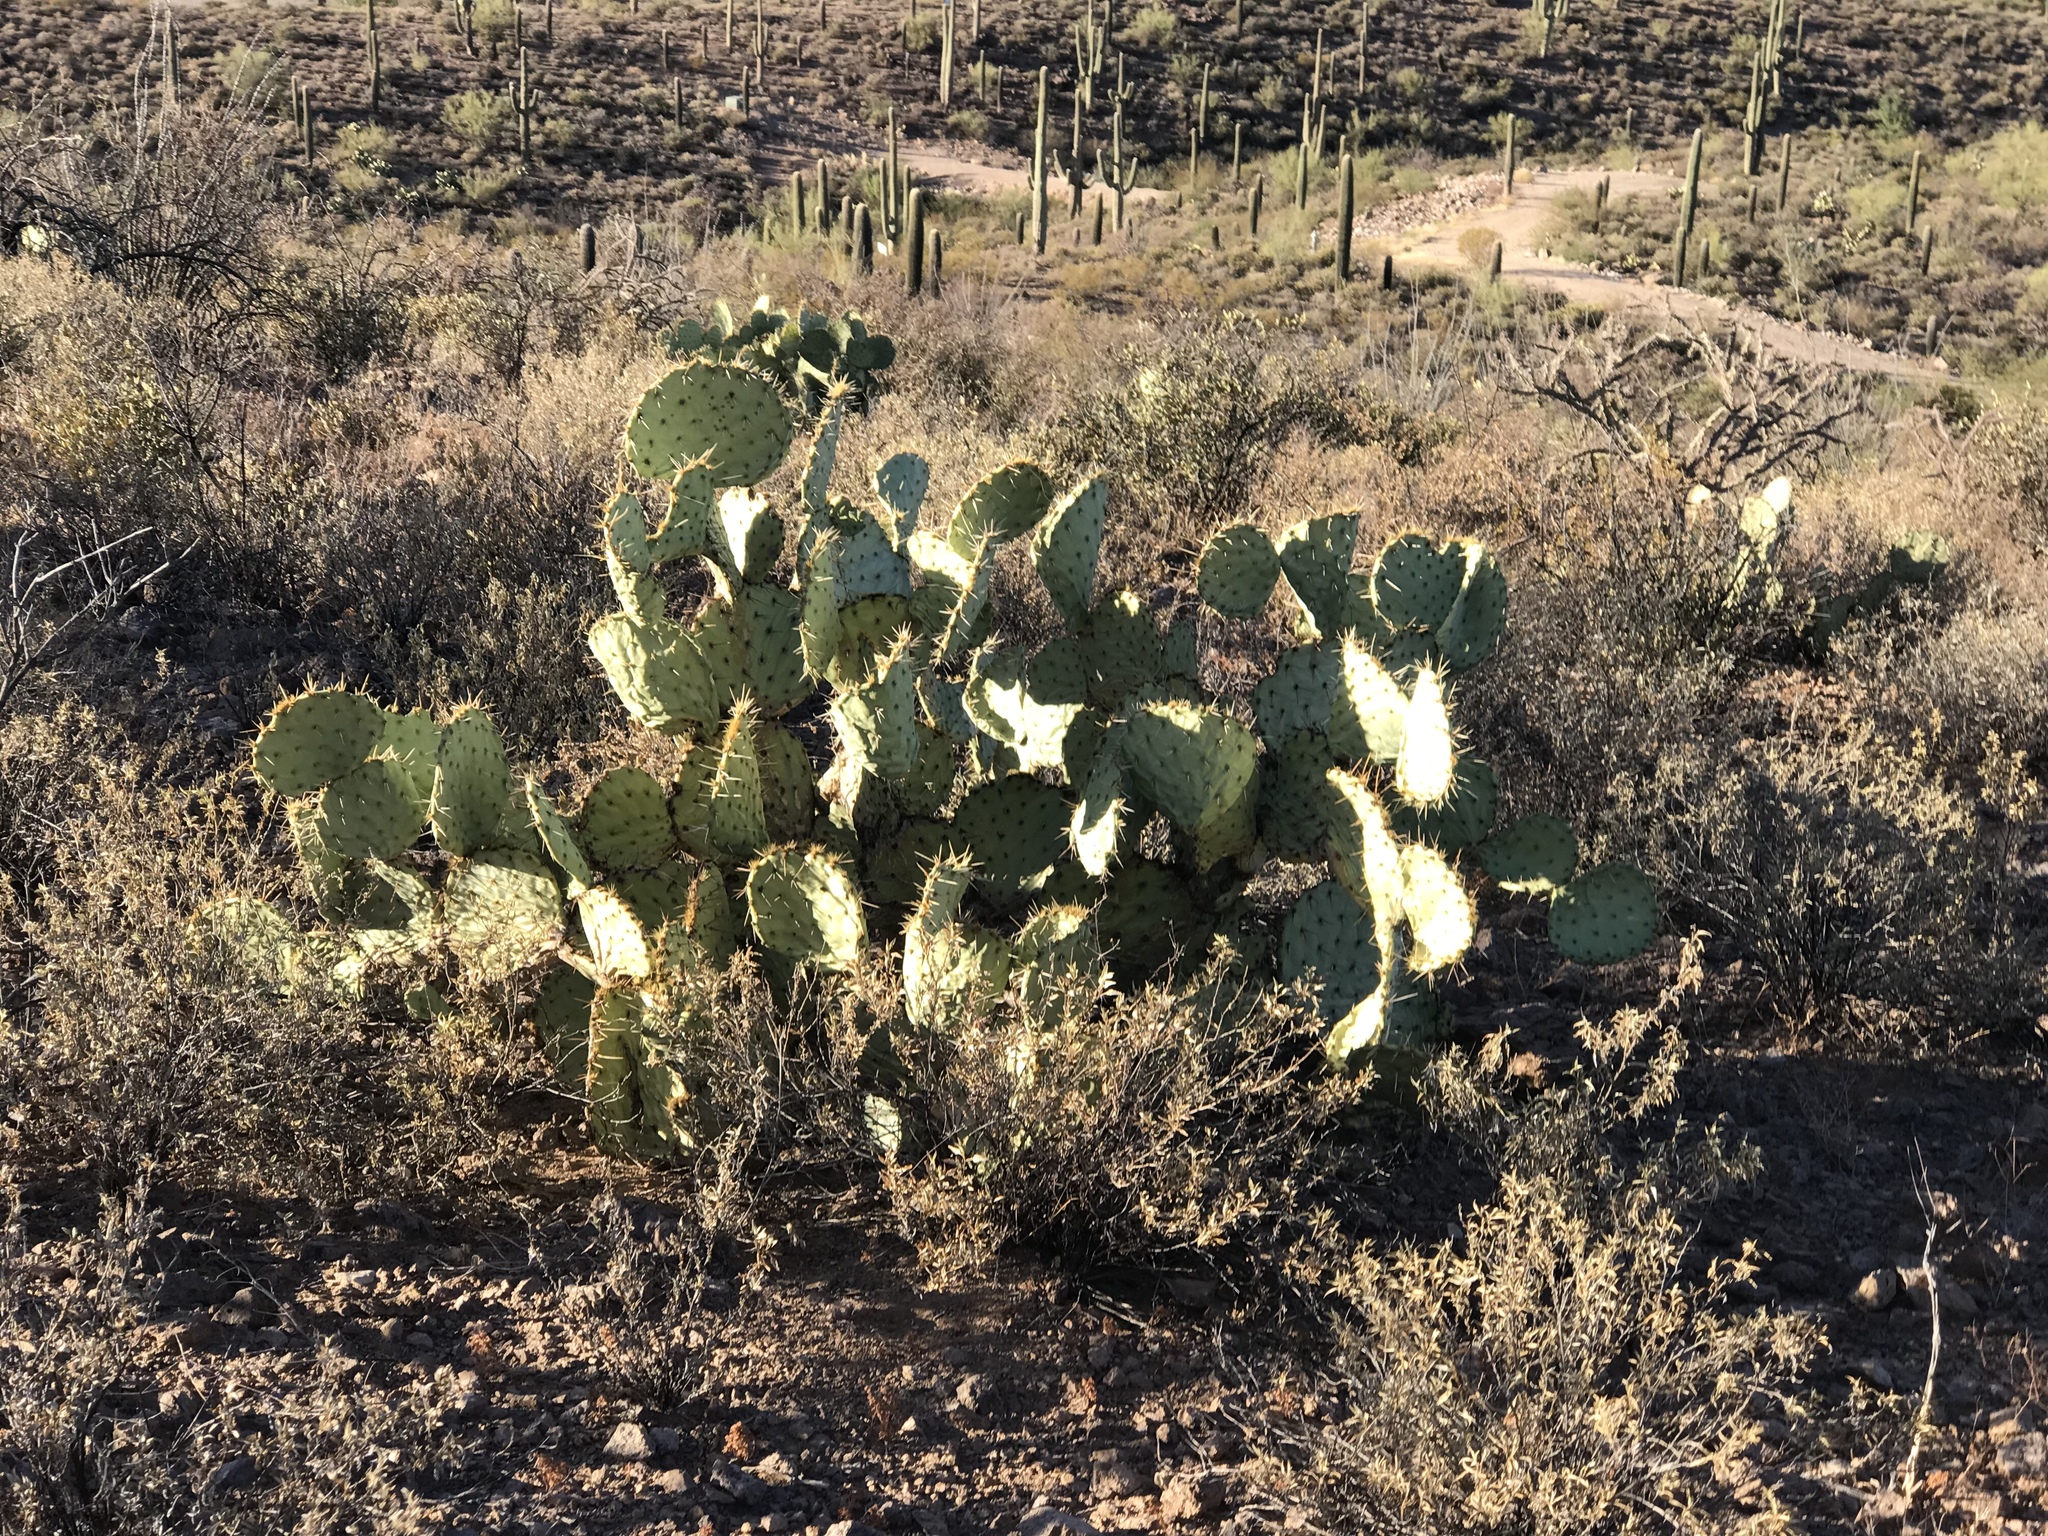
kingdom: Plantae
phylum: Tracheophyta
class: Magnoliopsida
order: Caryophyllales
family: Cactaceae
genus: Opuntia
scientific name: Opuntia engelmannii
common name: Cactus-apple
